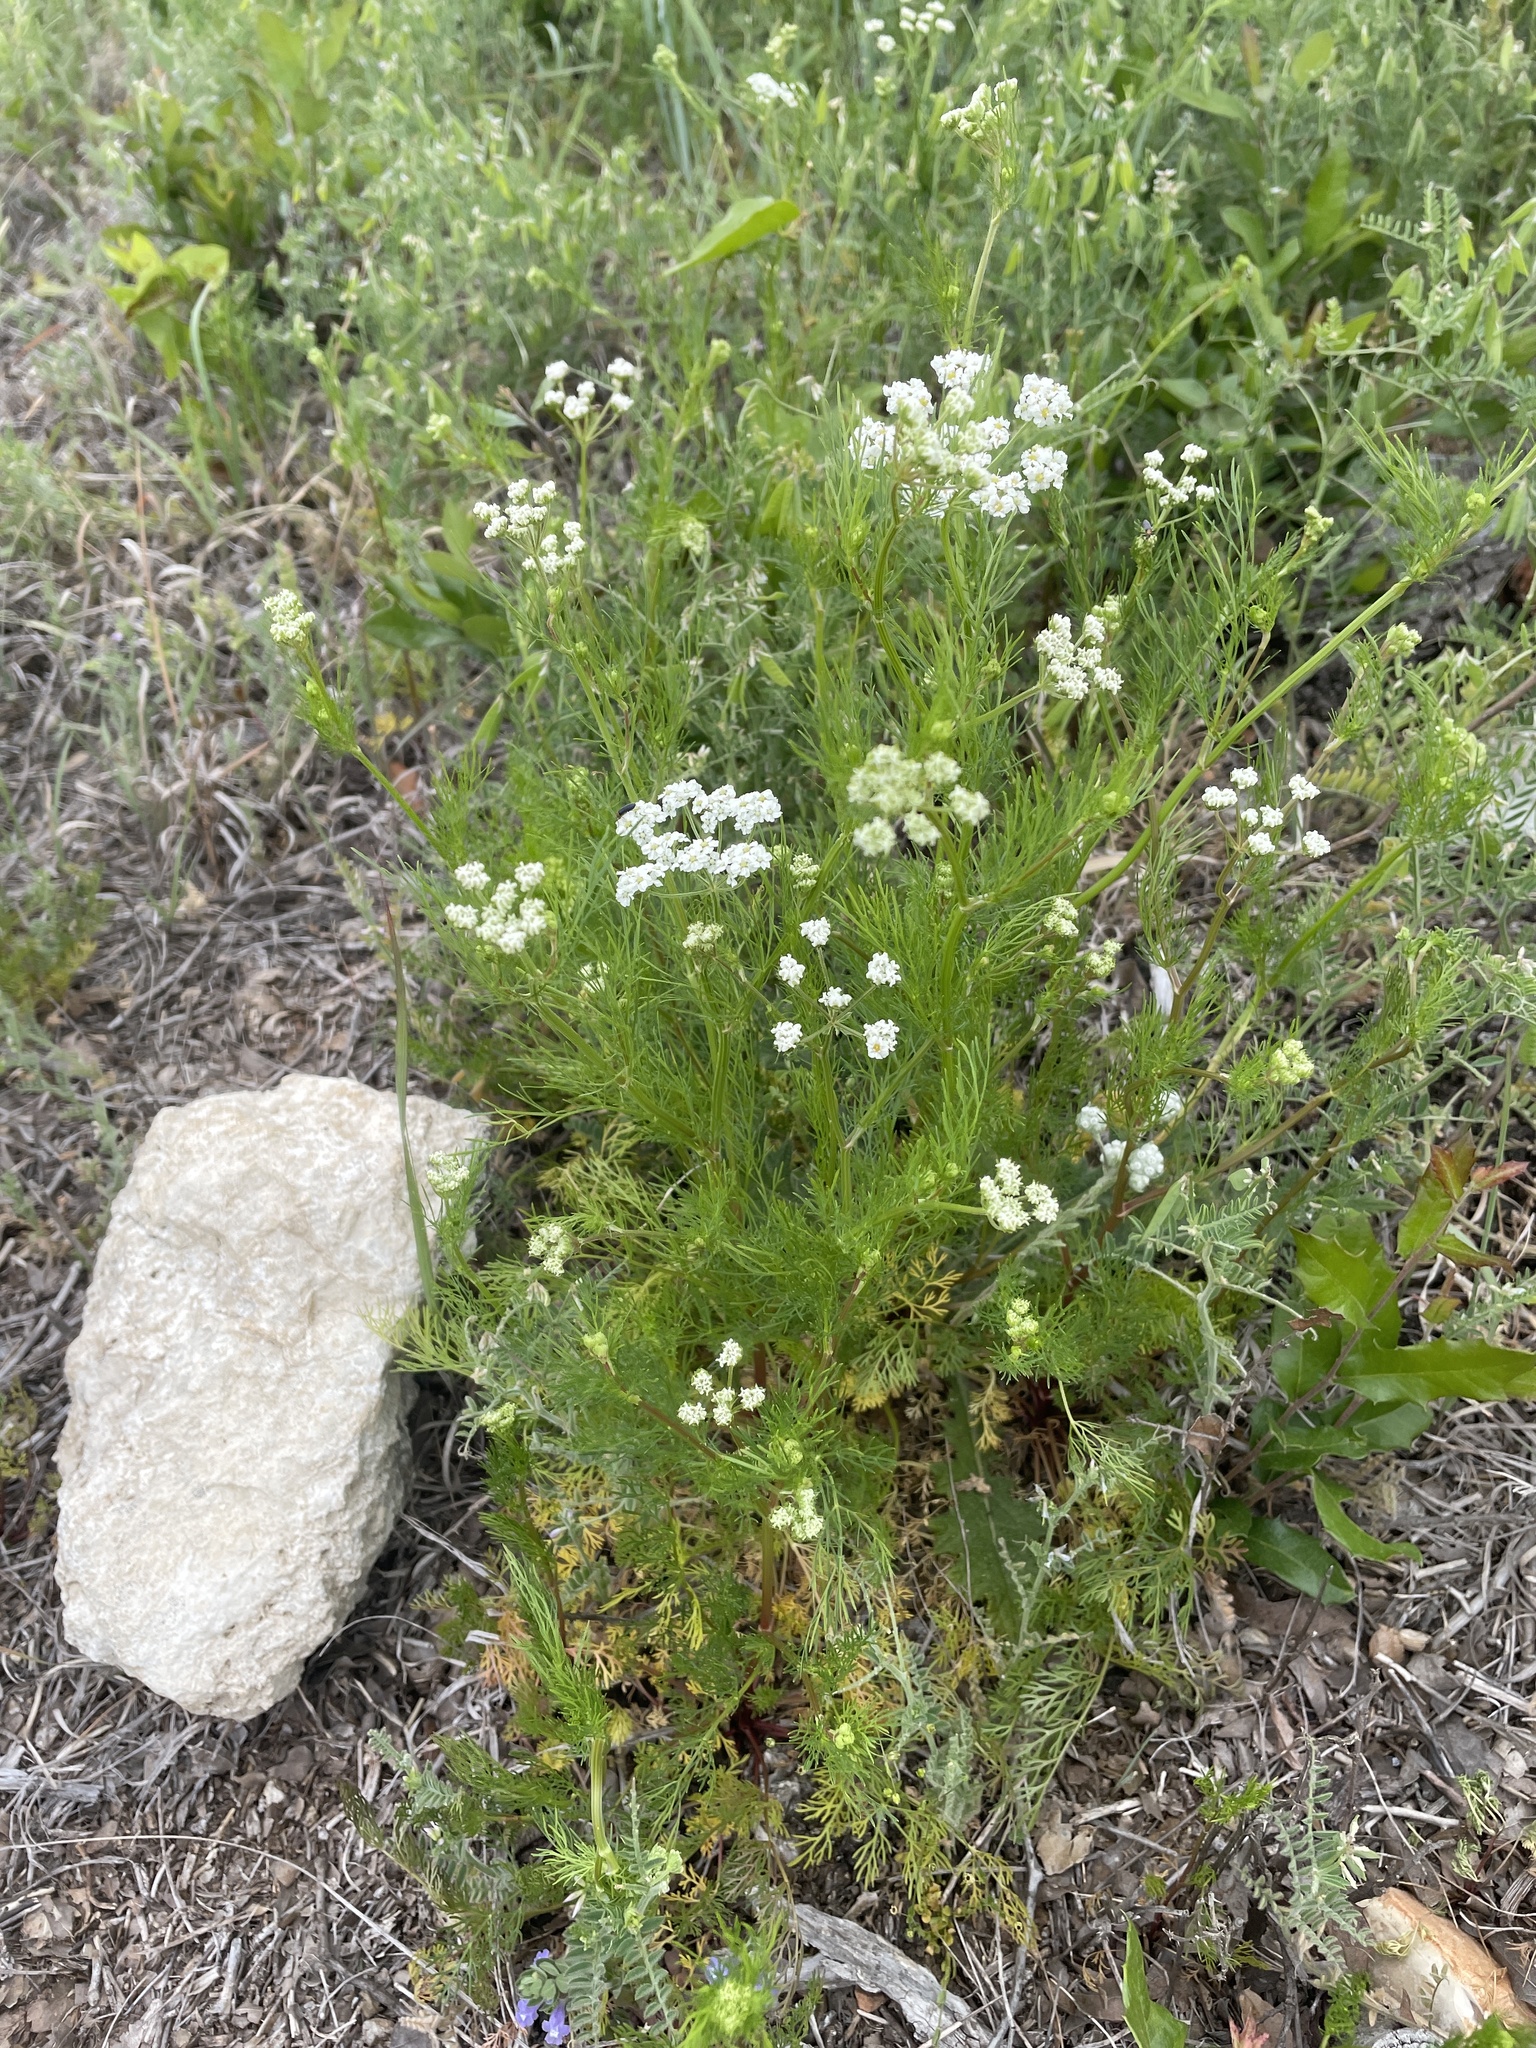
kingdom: Plantae
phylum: Tracheophyta
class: Magnoliopsida
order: Apiales
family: Apiaceae
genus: Atrema
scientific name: Atrema americanum
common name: Prairie-bishop
